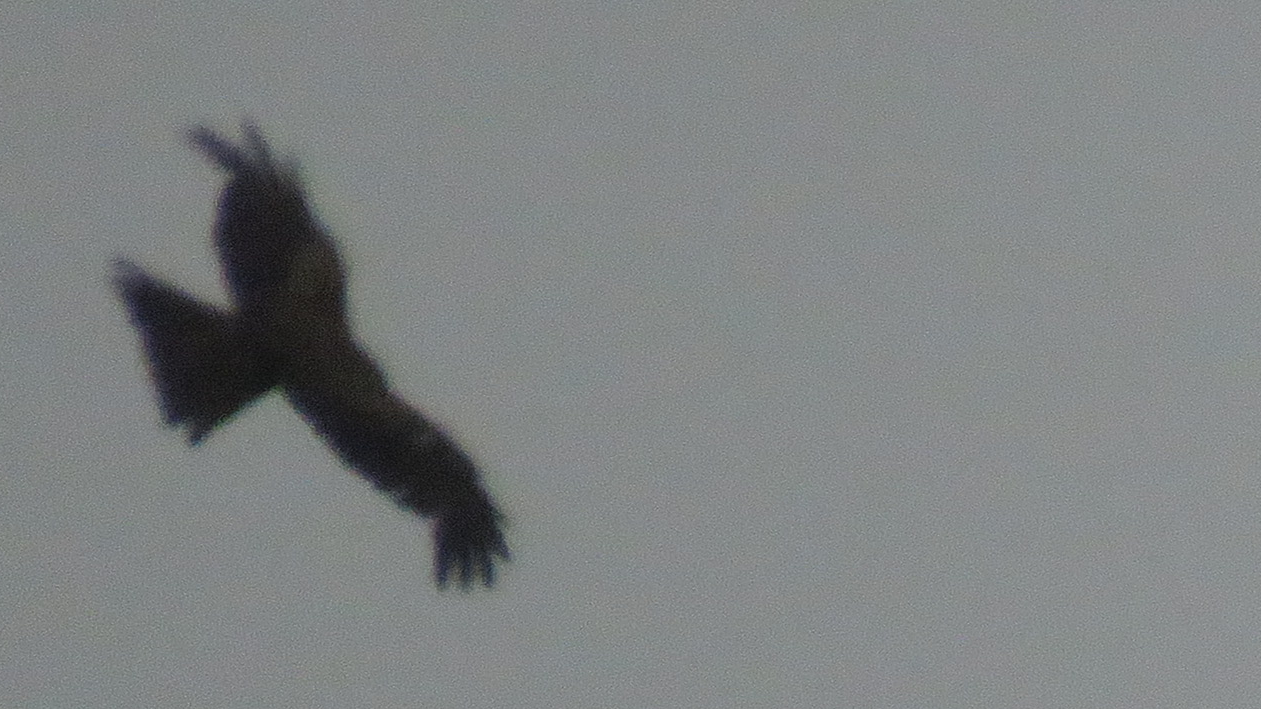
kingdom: Animalia
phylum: Chordata
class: Aves
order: Accipitriformes
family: Accipitridae
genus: Milvus
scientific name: Milvus migrans
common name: Black kite
